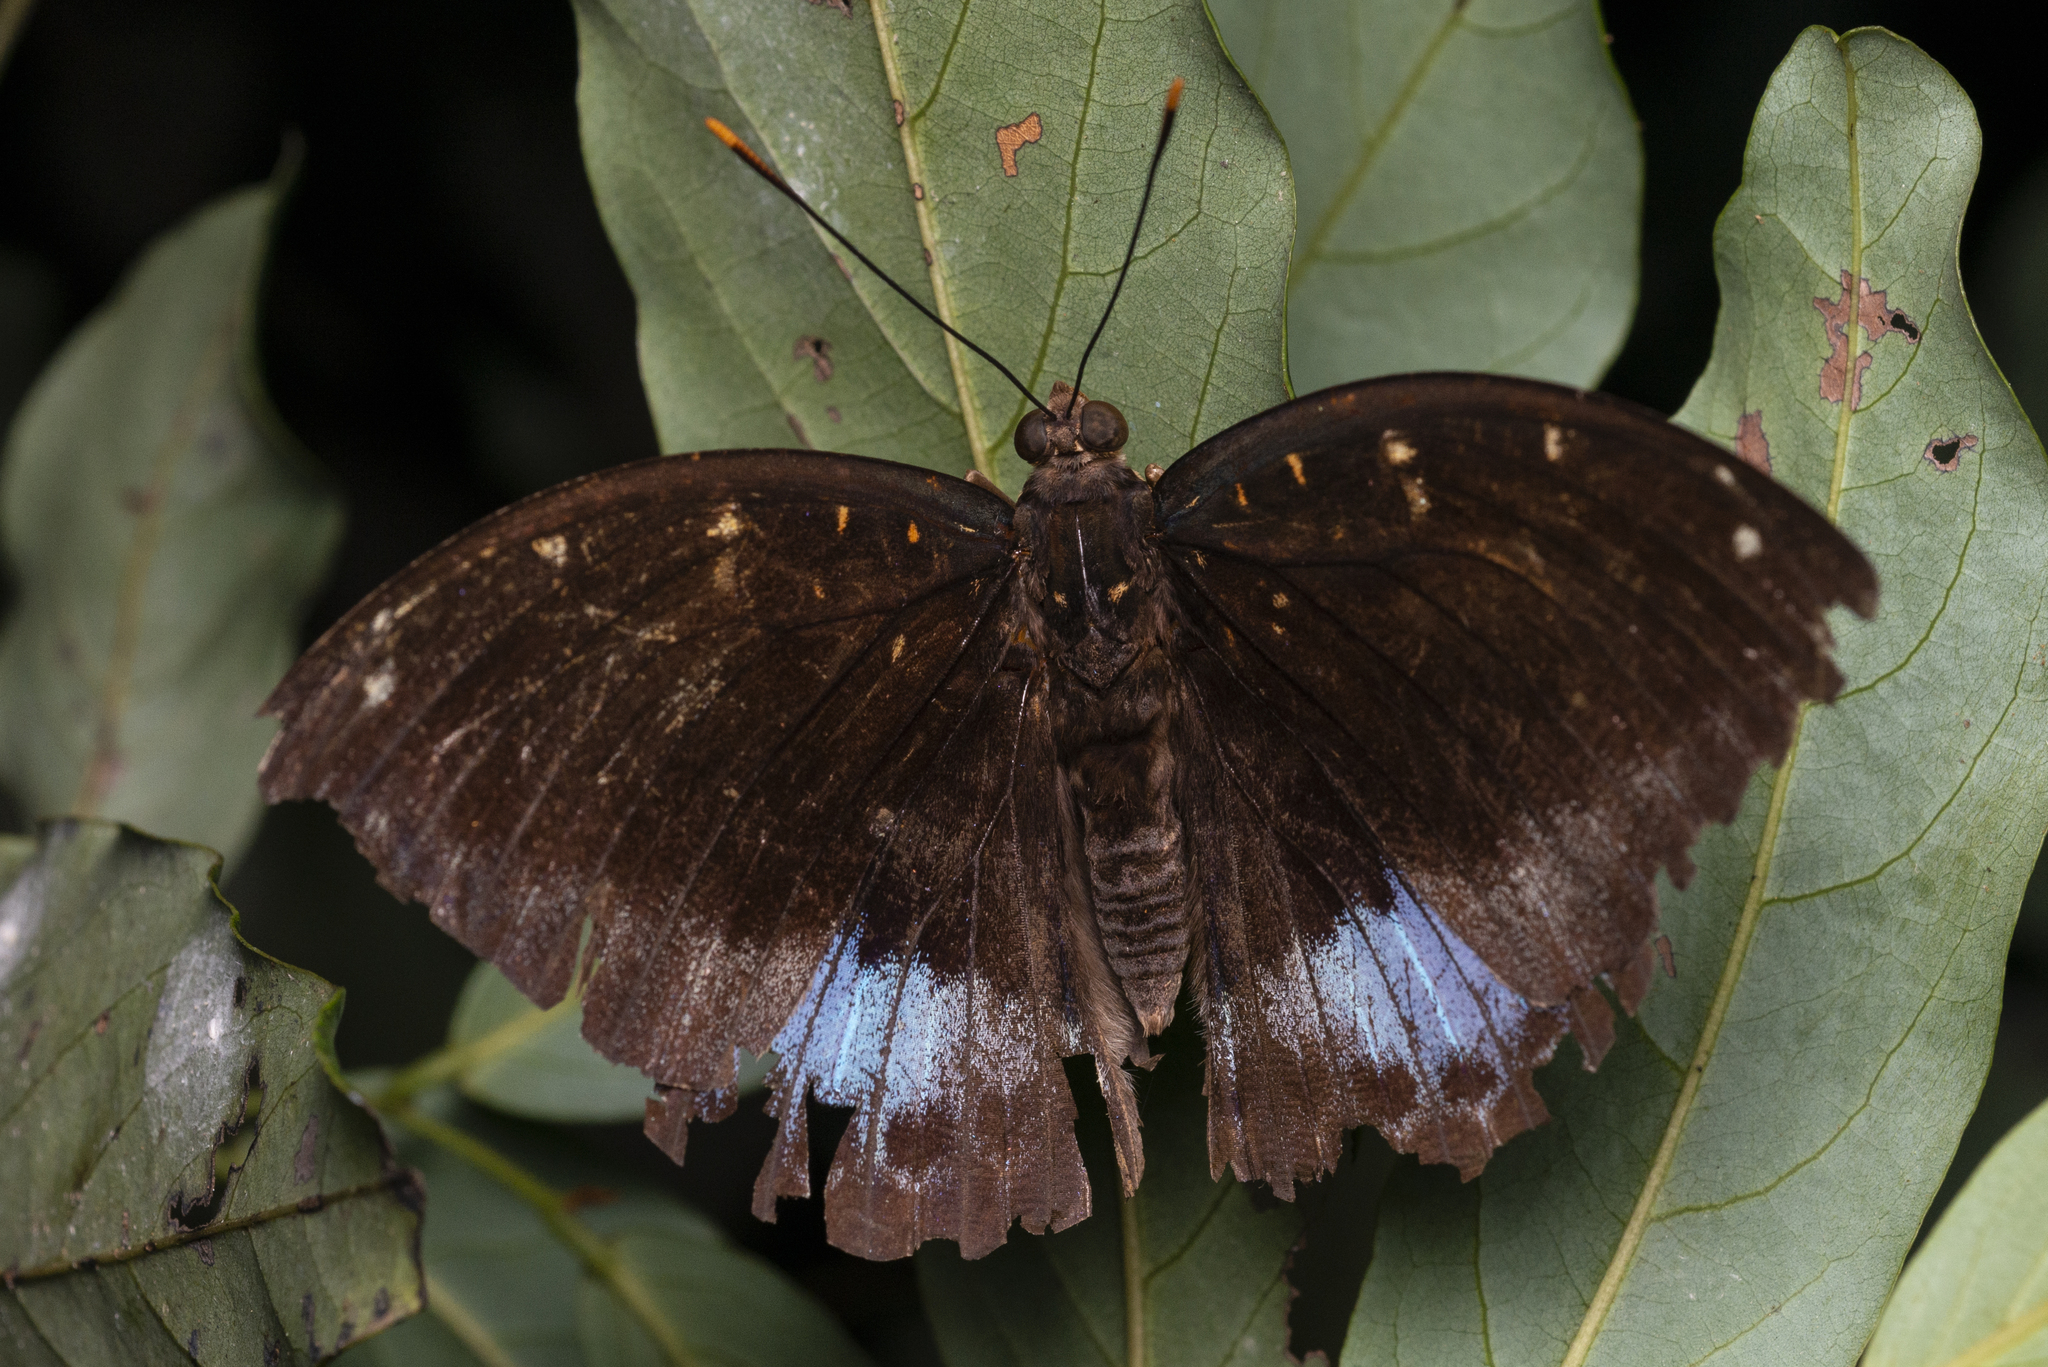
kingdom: Animalia
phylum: Arthropoda
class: Insecta
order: Lepidoptera
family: Nymphalidae
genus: Lexias
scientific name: Lexias pardalis
